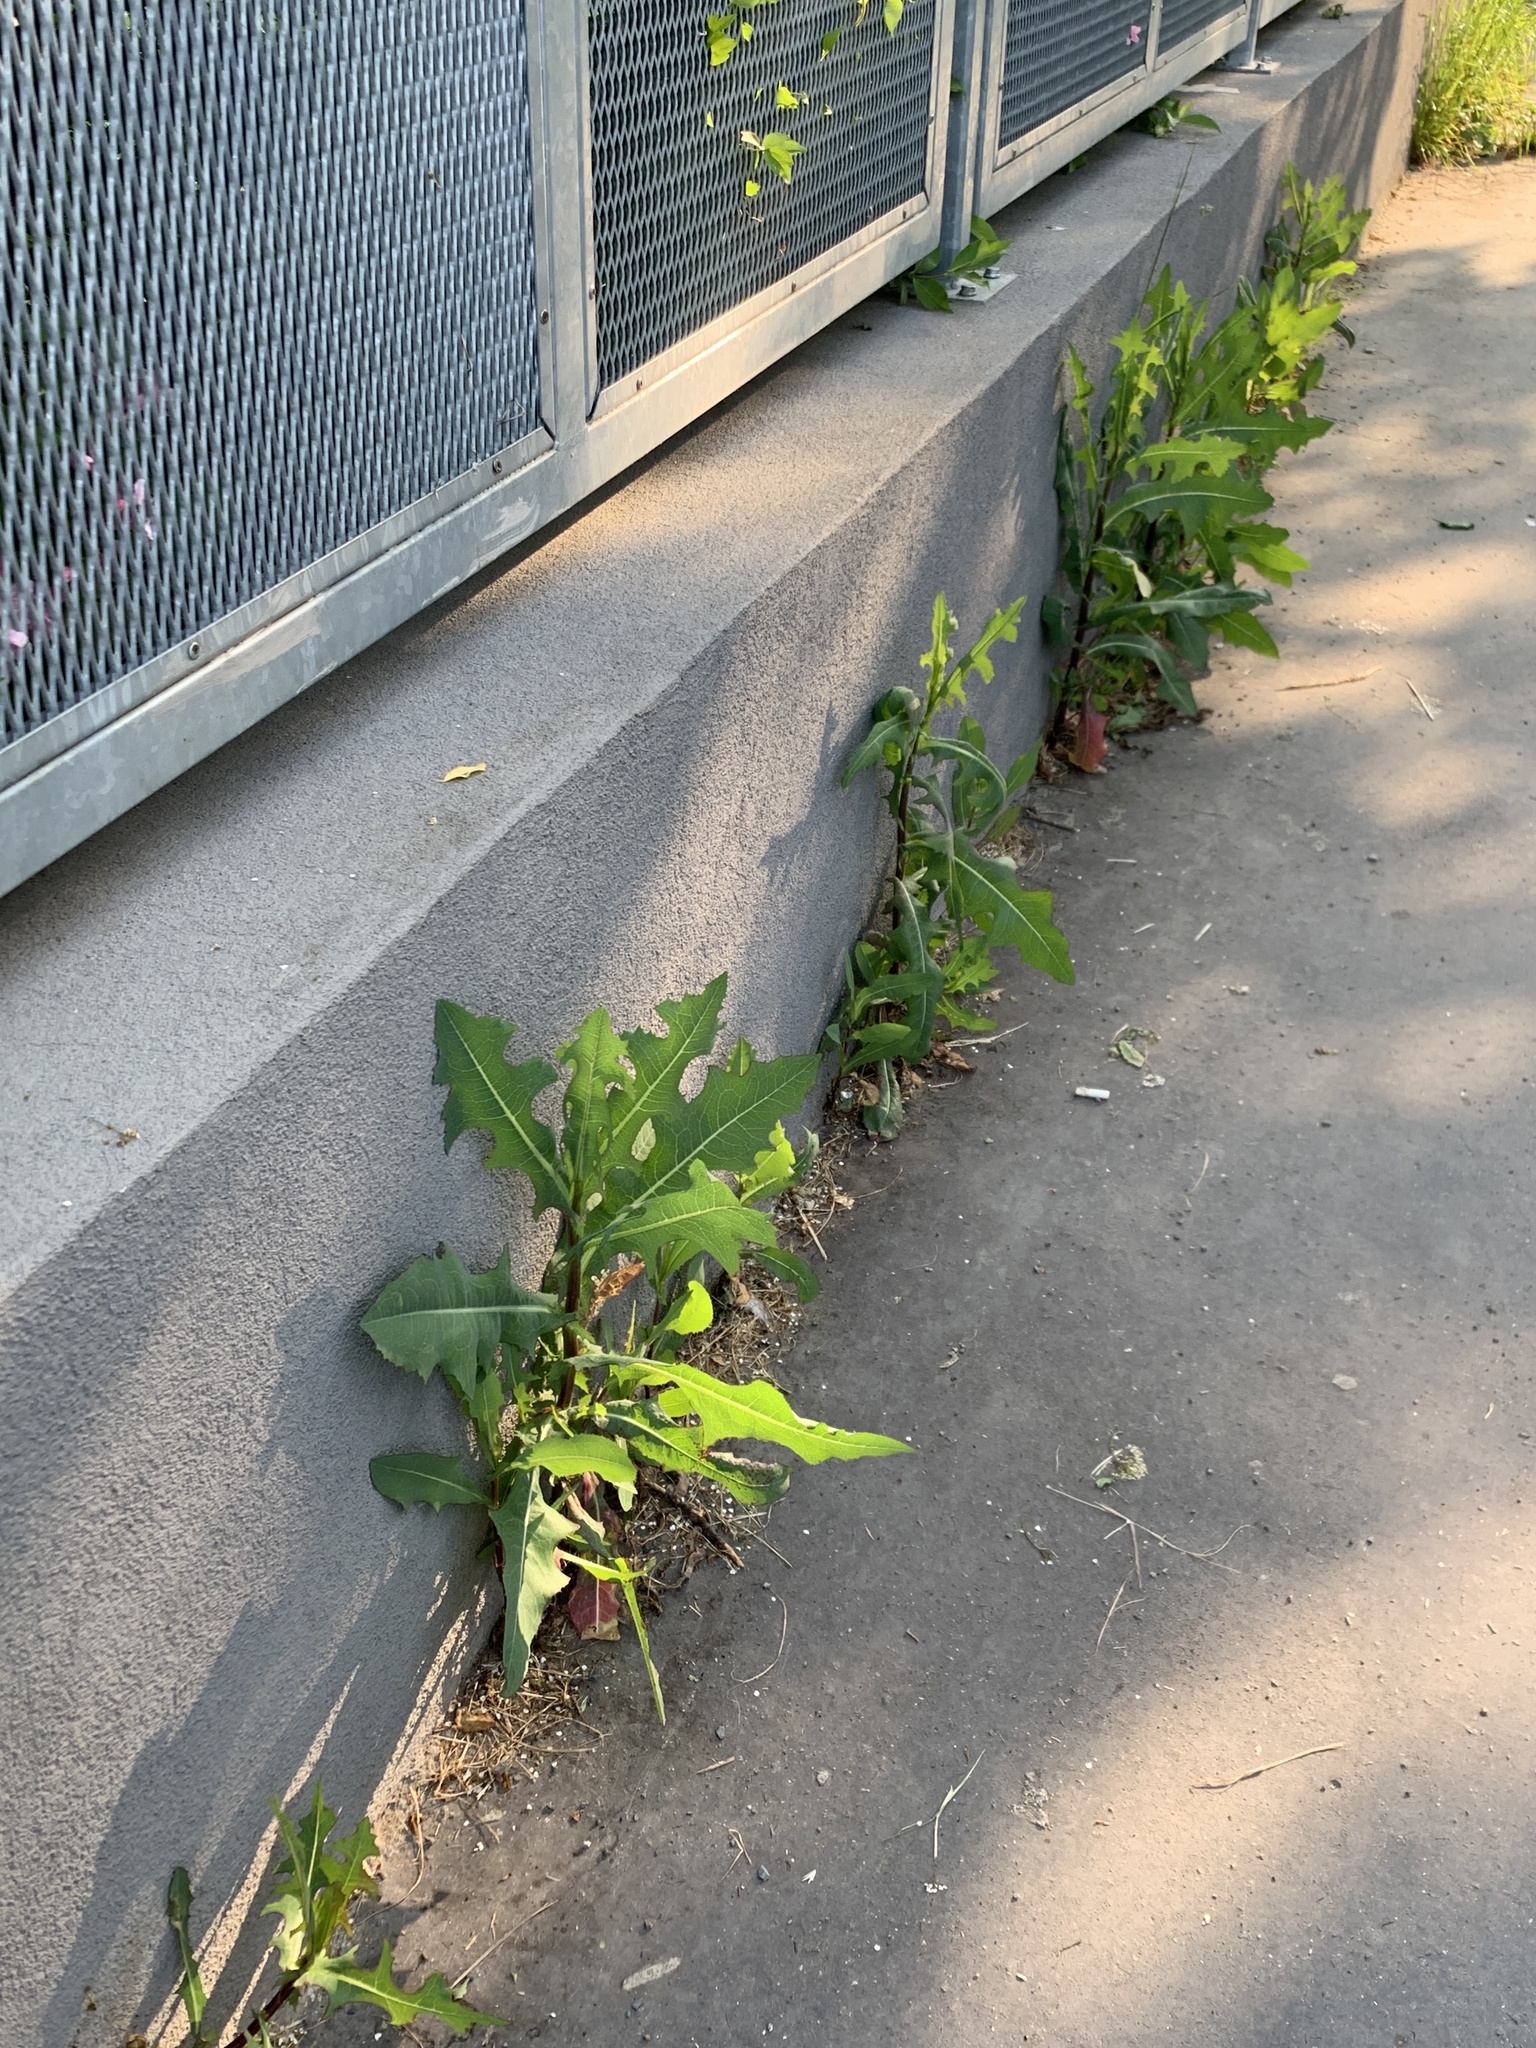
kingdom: Plantae
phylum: Tracheophyta
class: Magnoliopsida
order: Asterales
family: Asteraceae
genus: Lactuca
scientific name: Lactuca serriola
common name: Prickly lettuce
